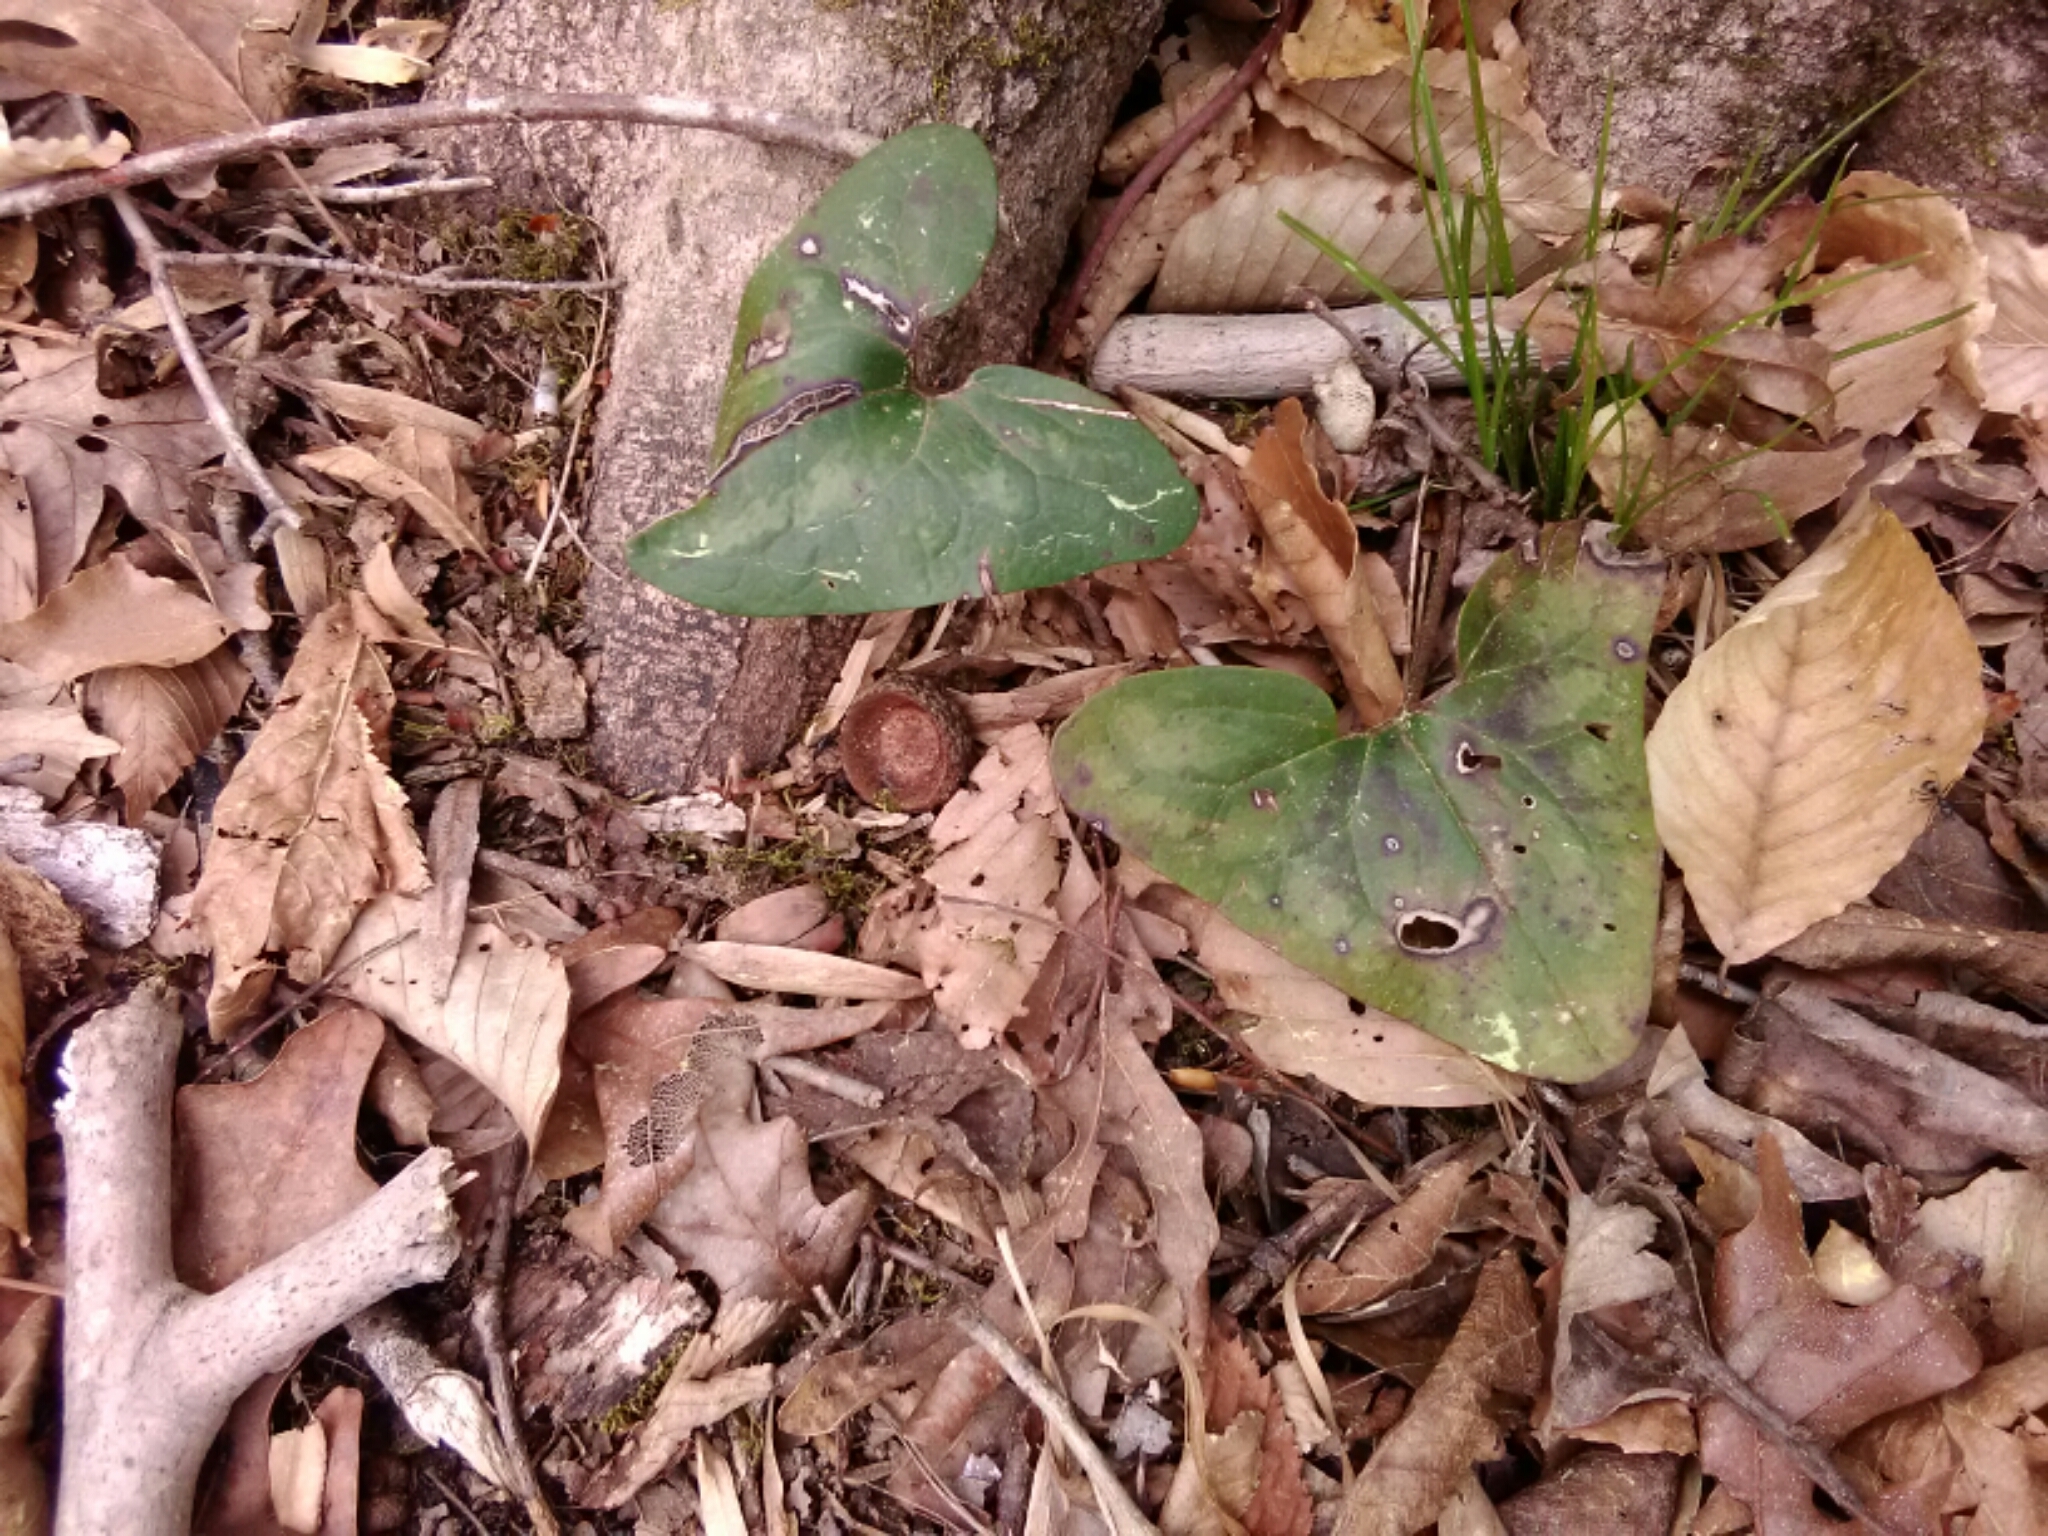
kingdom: Plantae
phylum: Tracheophyta
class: Magnoliopsida
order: Piperales
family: Aristolochiaceae
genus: Hexastylis
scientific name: Hexastylis arifolia
